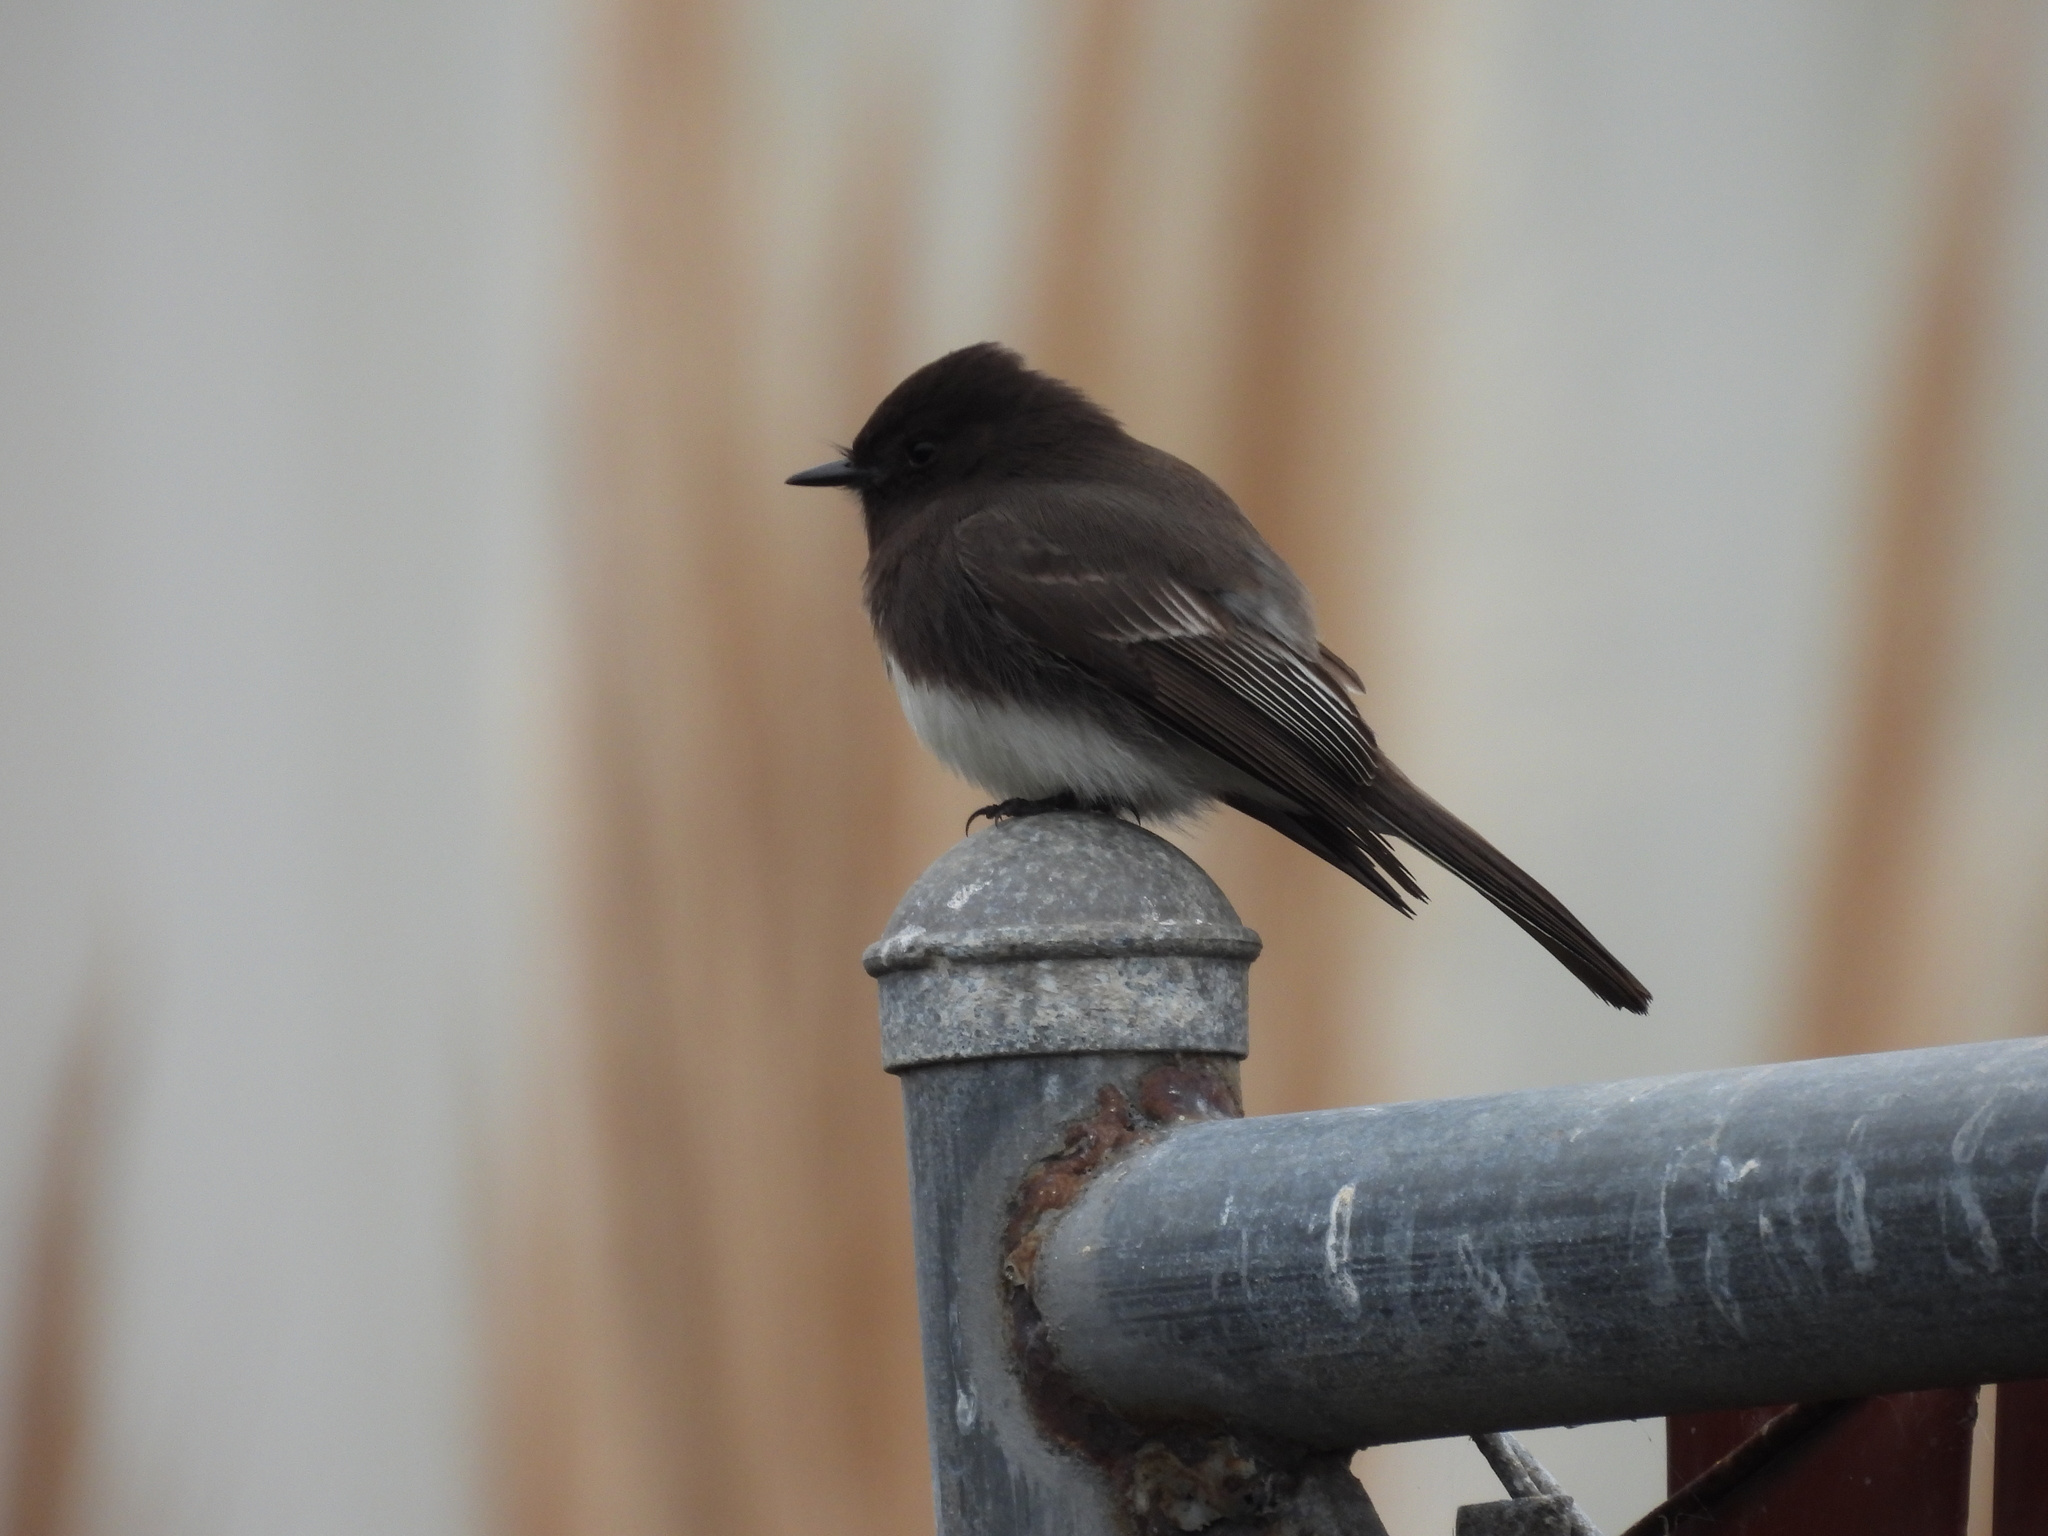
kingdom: Animalia
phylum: Chordata
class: Aves
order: Passeriformes
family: Tyrannidae
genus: Sayornis
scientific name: Sayornis nigricans
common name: Black phoebe
